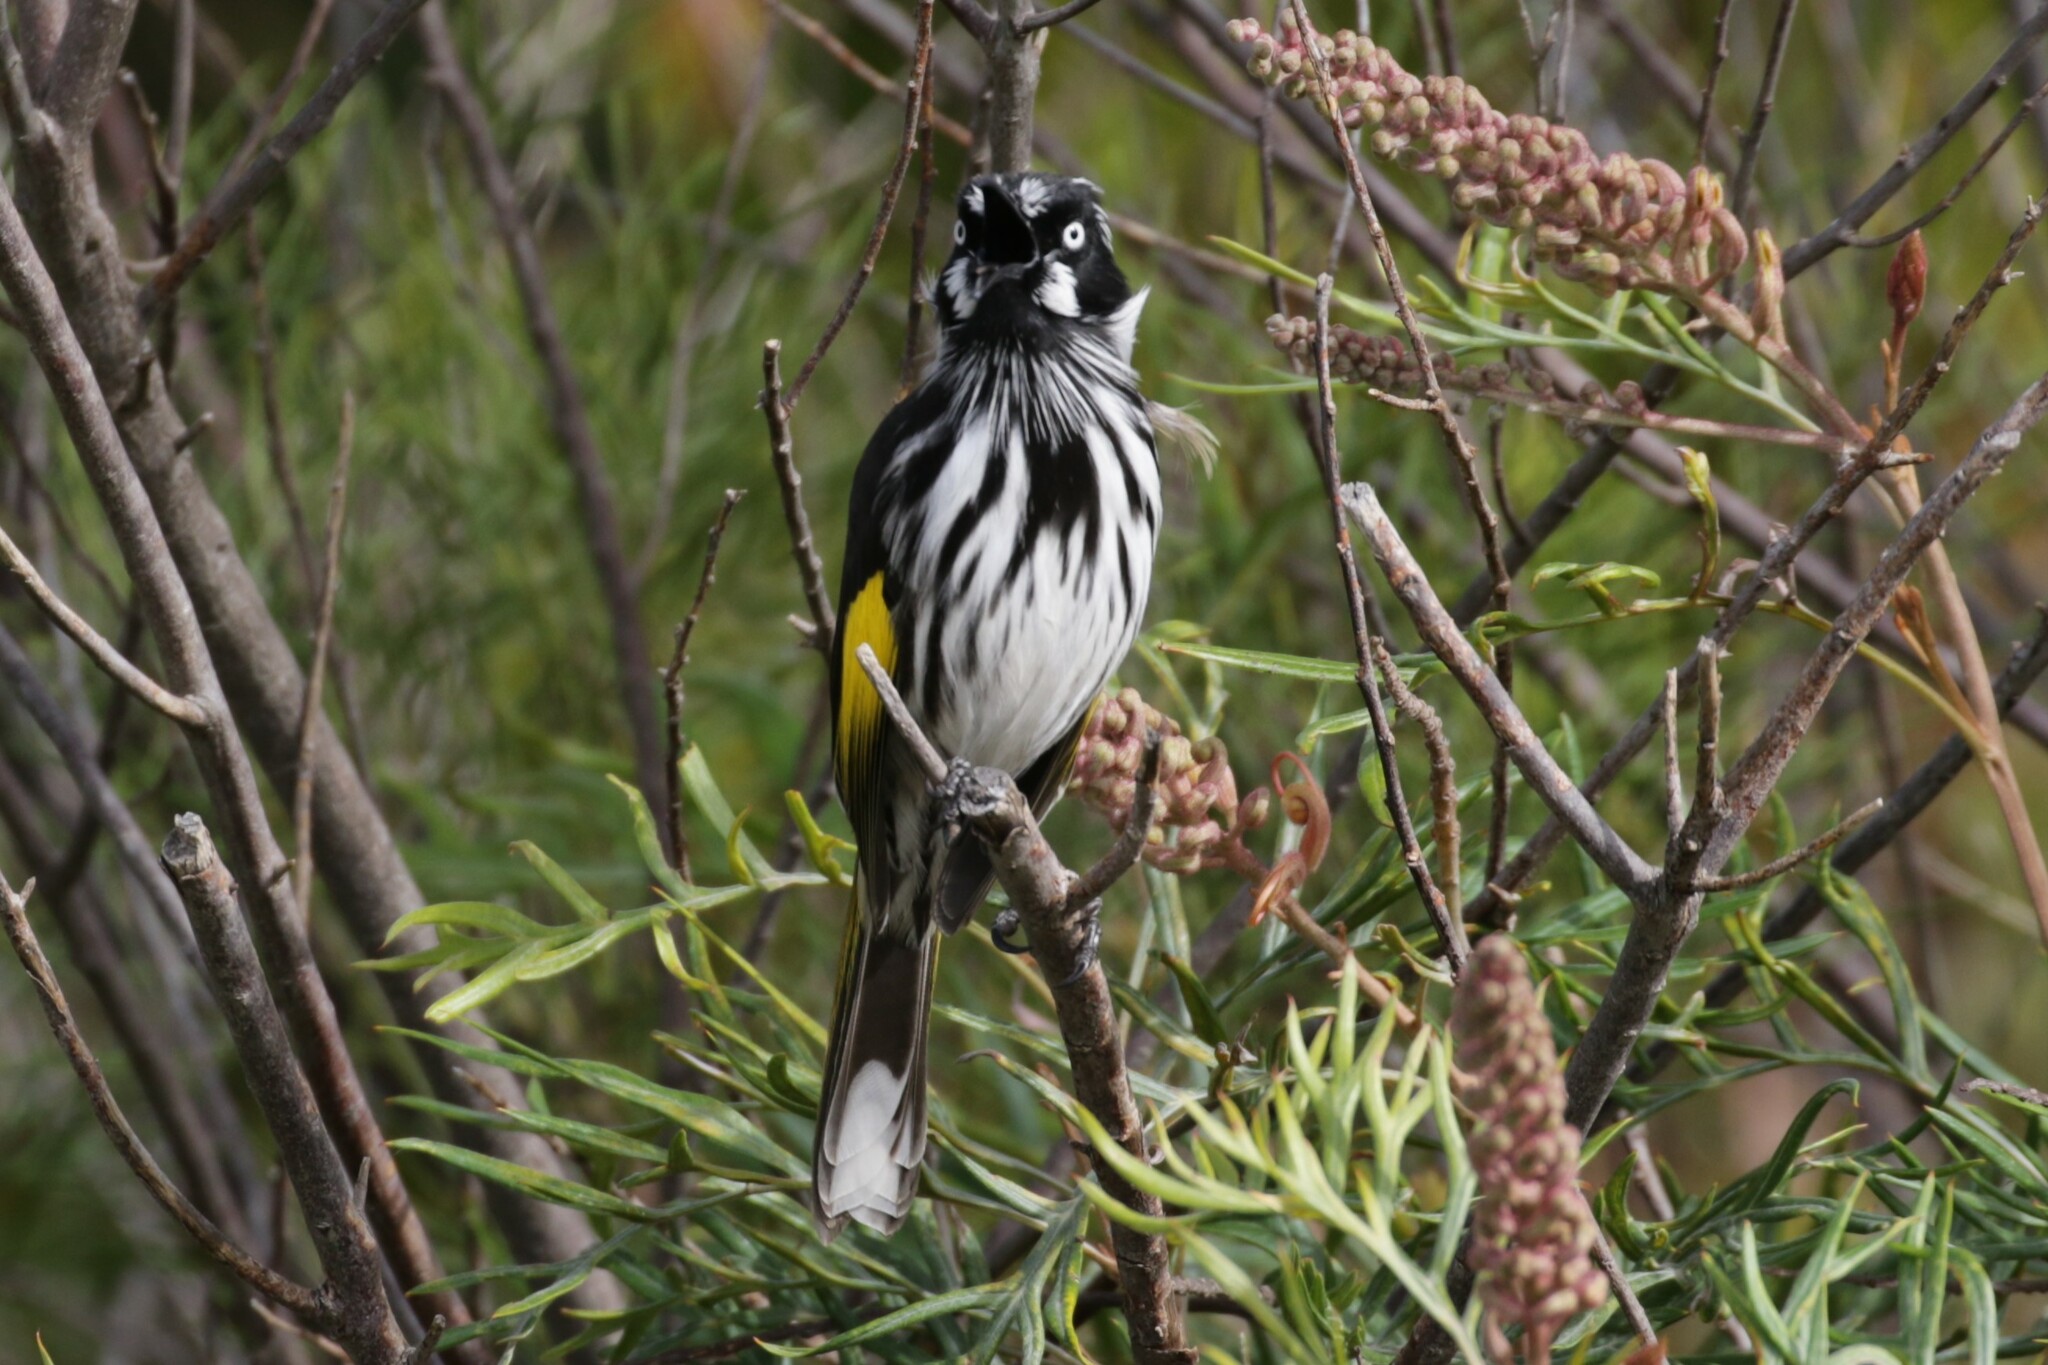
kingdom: Animalia
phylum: Chordata
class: Aves
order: Passeriformes
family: Meliphagidae
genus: Phylidonyris
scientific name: Phylidonyris novaehollandiae
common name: New holland honeyeater
